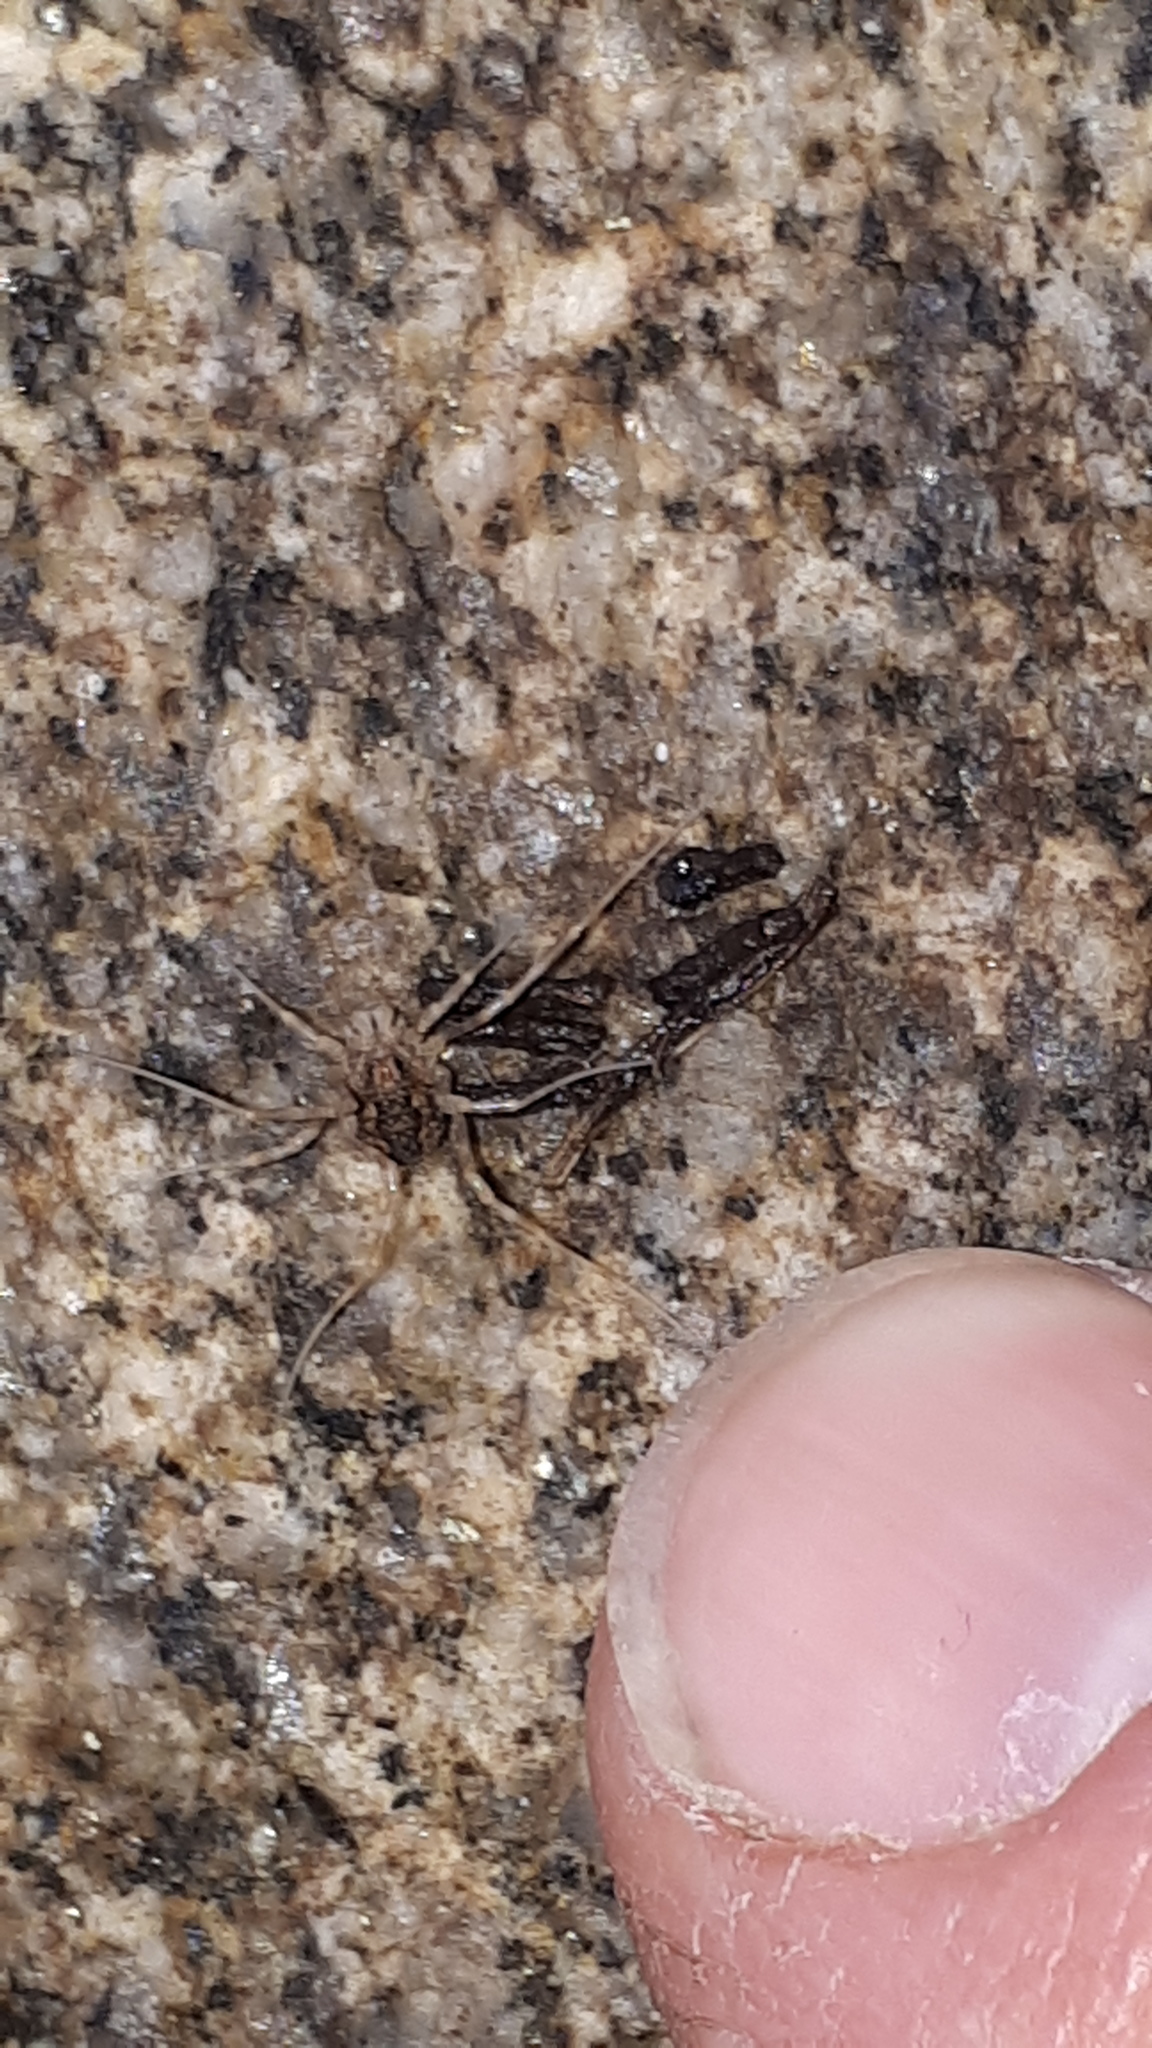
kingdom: Animalia
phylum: Arthropoda
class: Arachnida
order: Opiliones
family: Phalangiidae
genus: Rilaena
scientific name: Rilaena triangularis
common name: Spring harvestman
